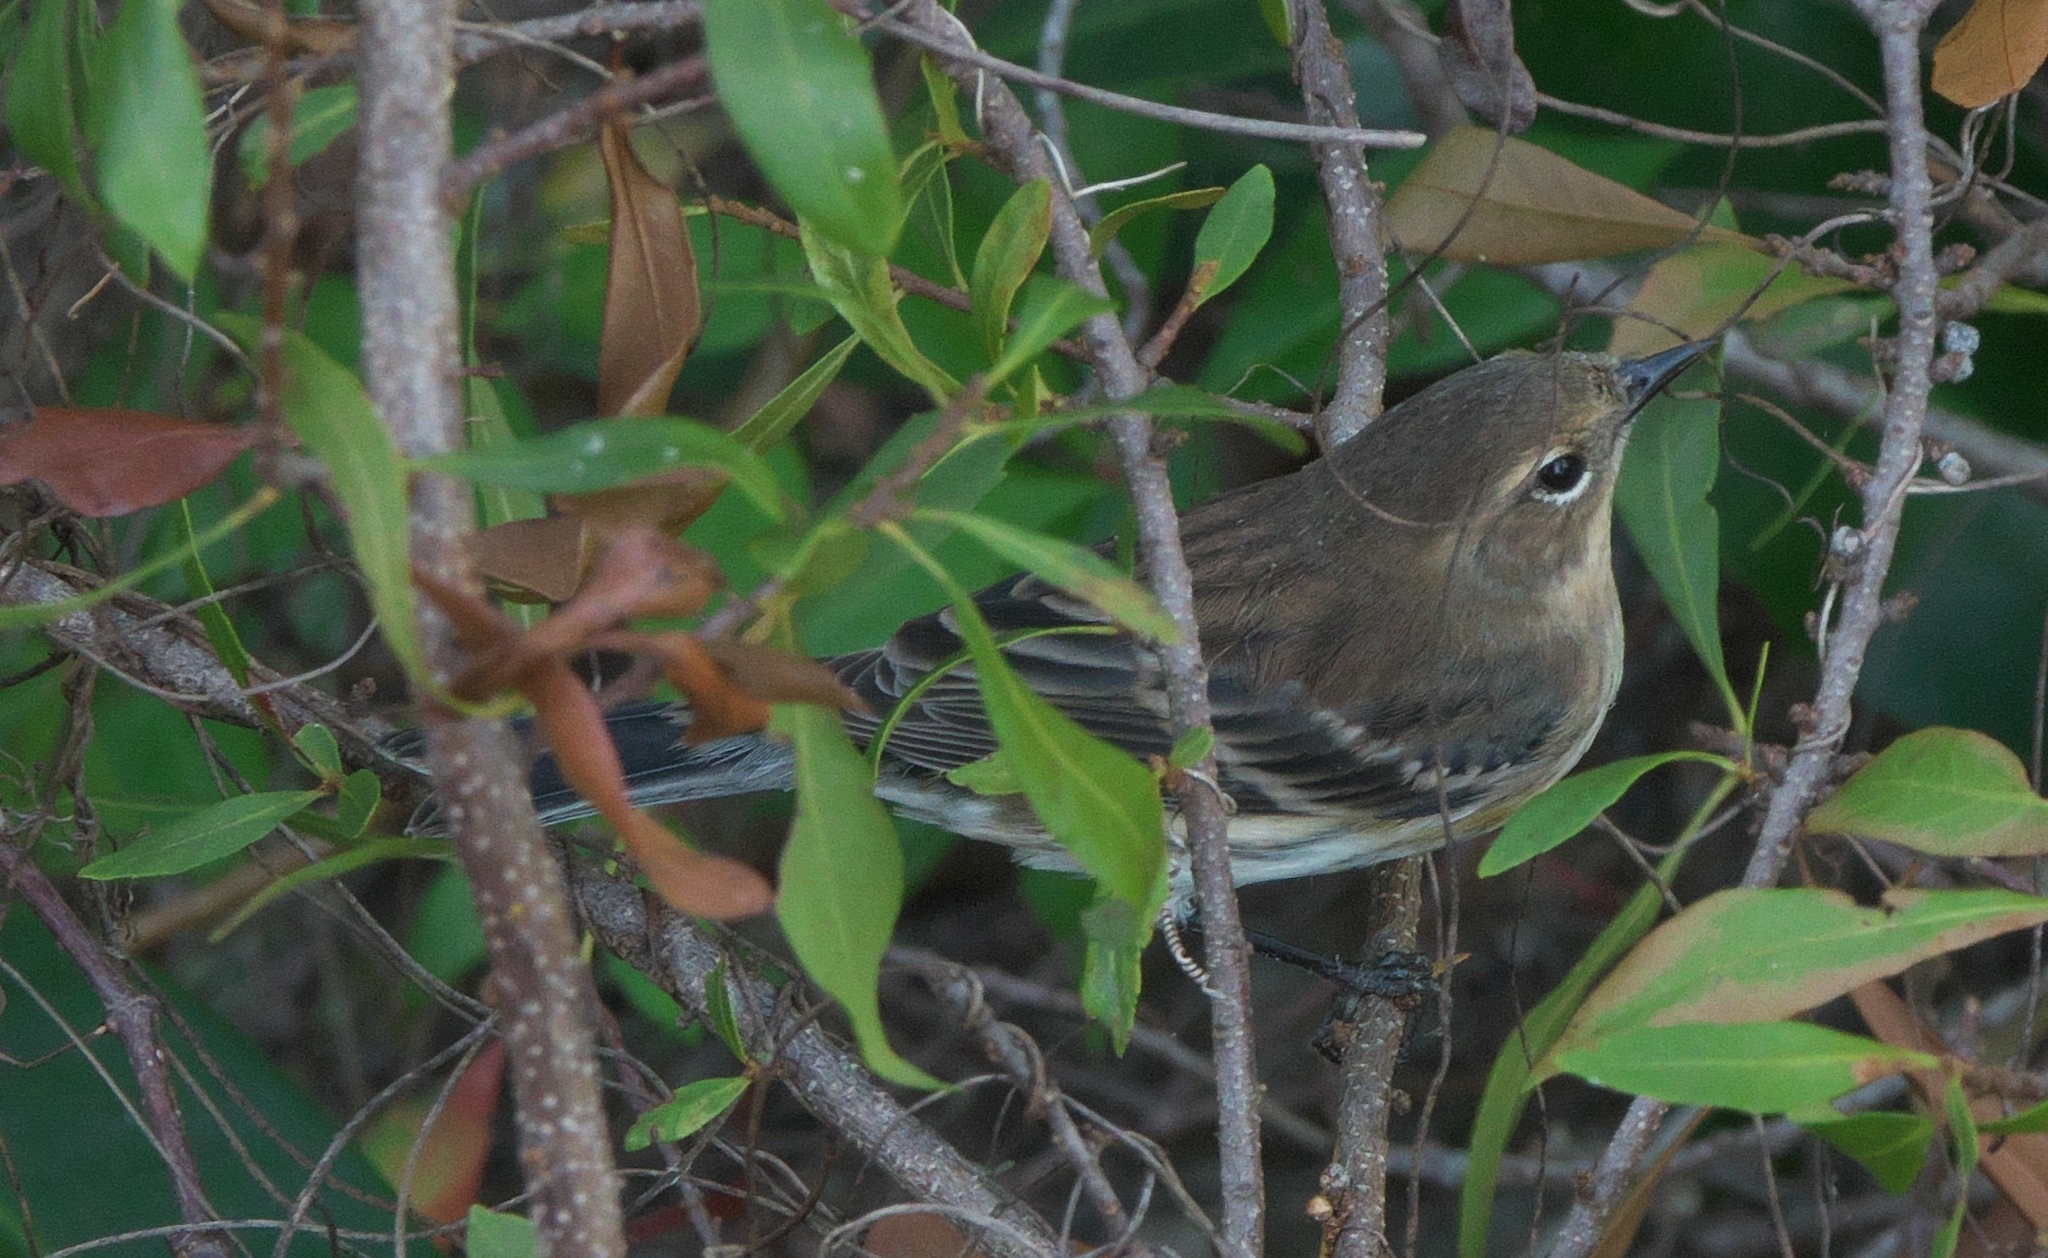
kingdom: Animalia
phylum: Chordata
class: Aves
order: Passeriformes
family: Parulidae
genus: Setophaga
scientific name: Setophaga coronata
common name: Myrtle warbler
